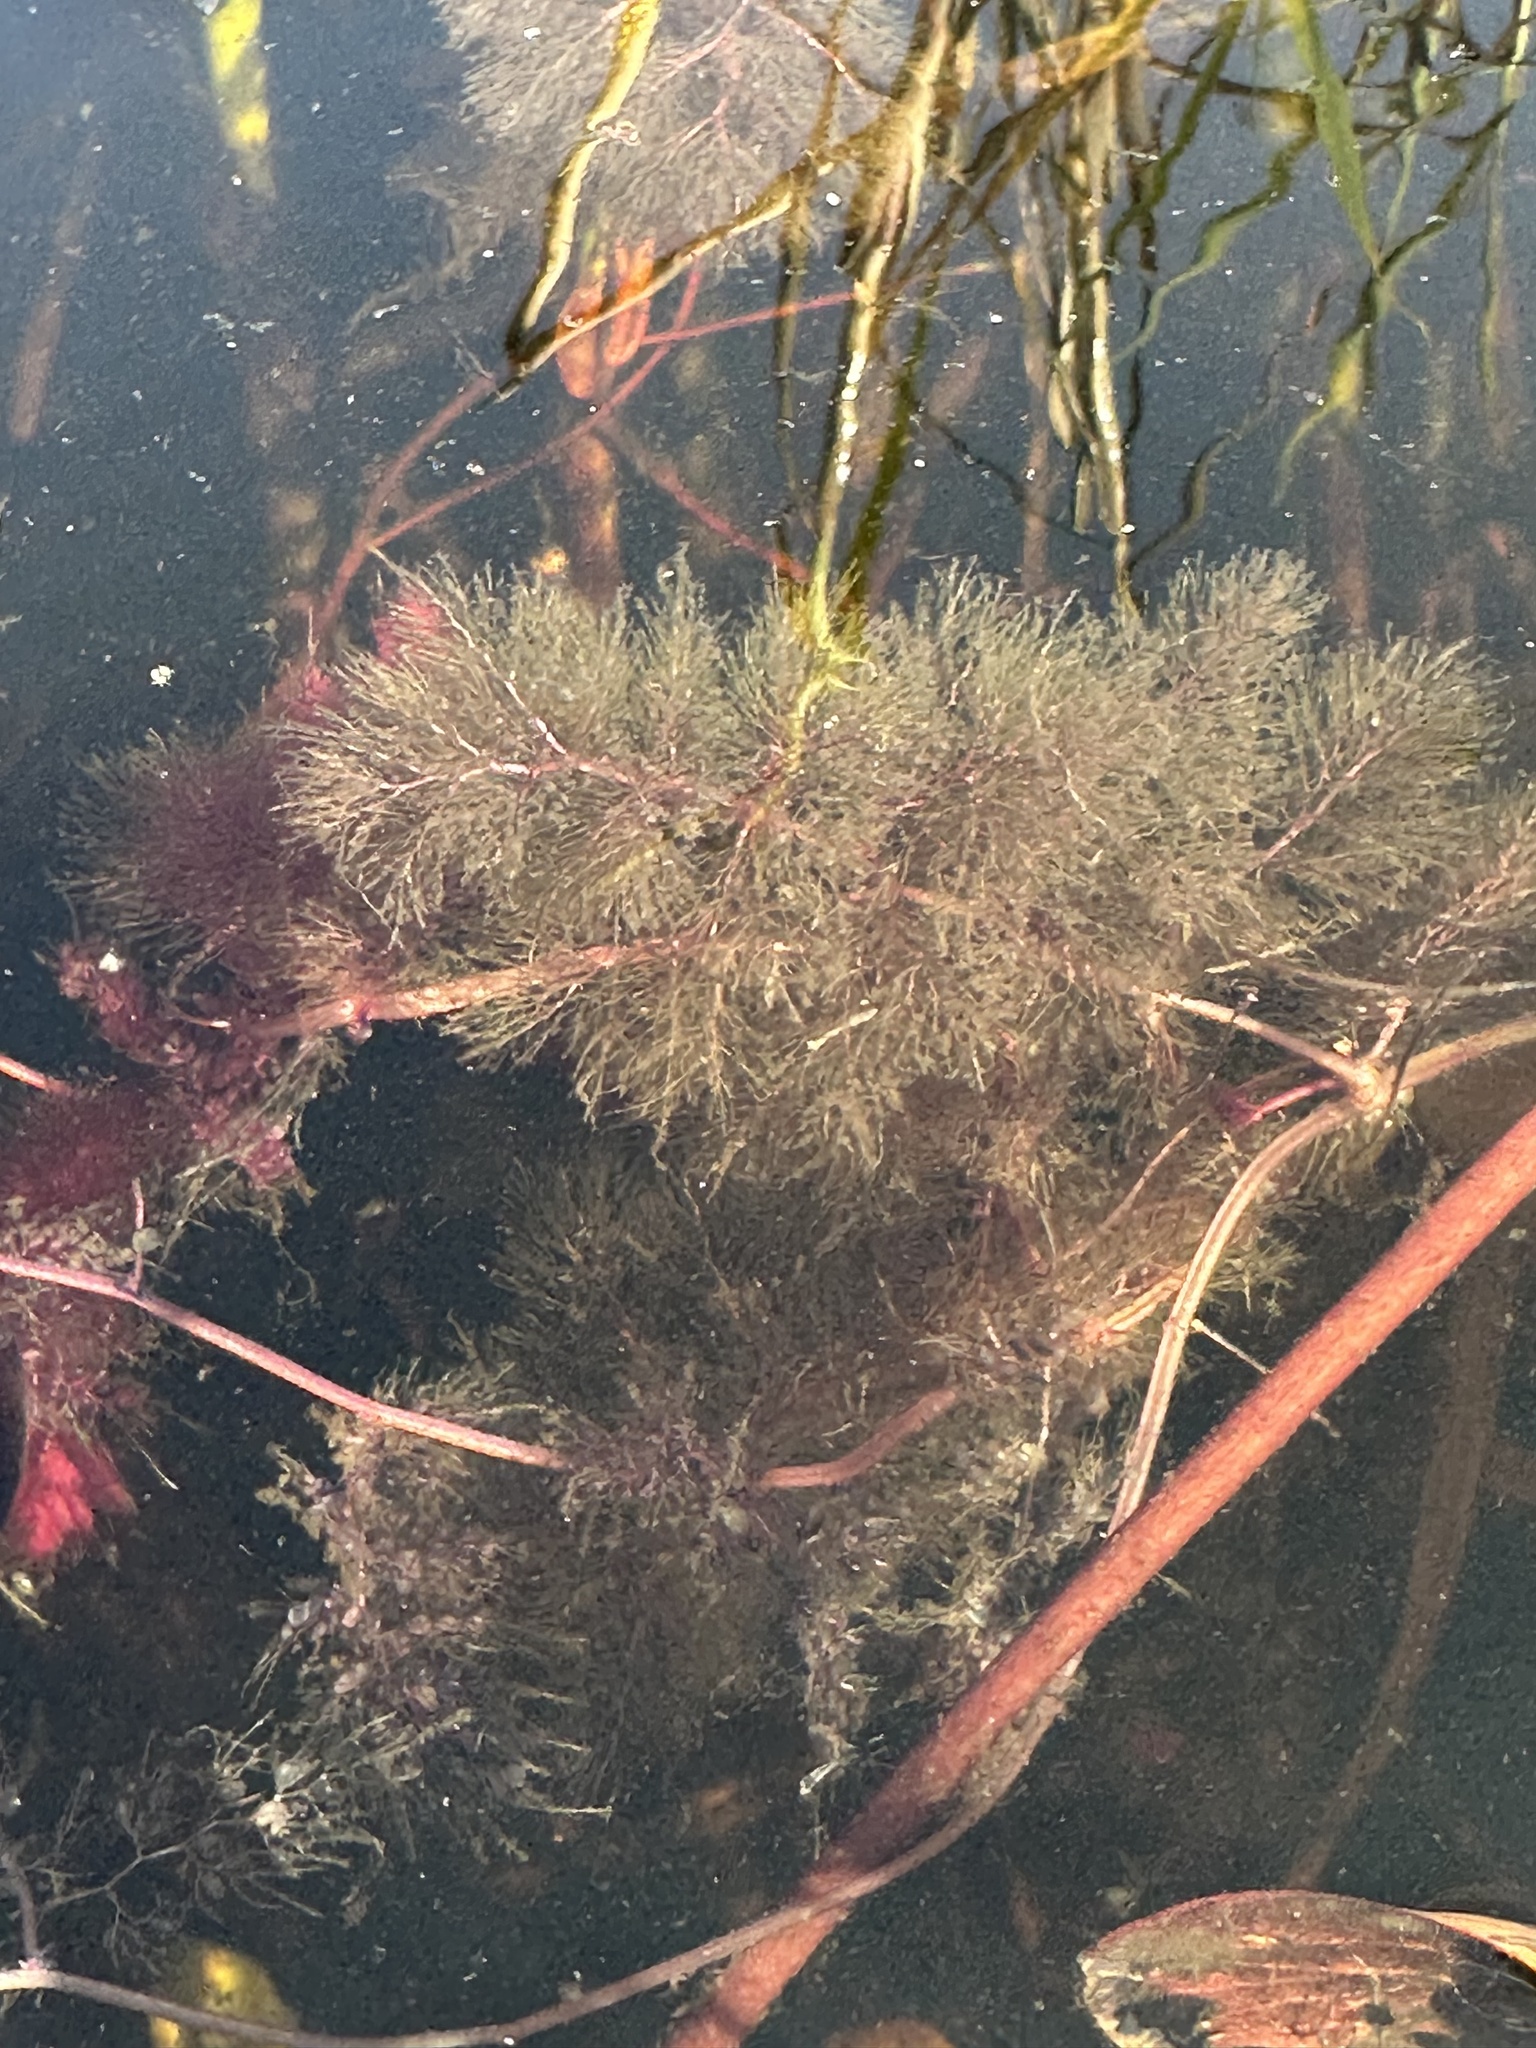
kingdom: Plantae
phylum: Tracheophyta
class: Magnoliopsida
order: Lamiales
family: Lentibulariaceae
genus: Utricularia
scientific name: Utricularia foliosa
